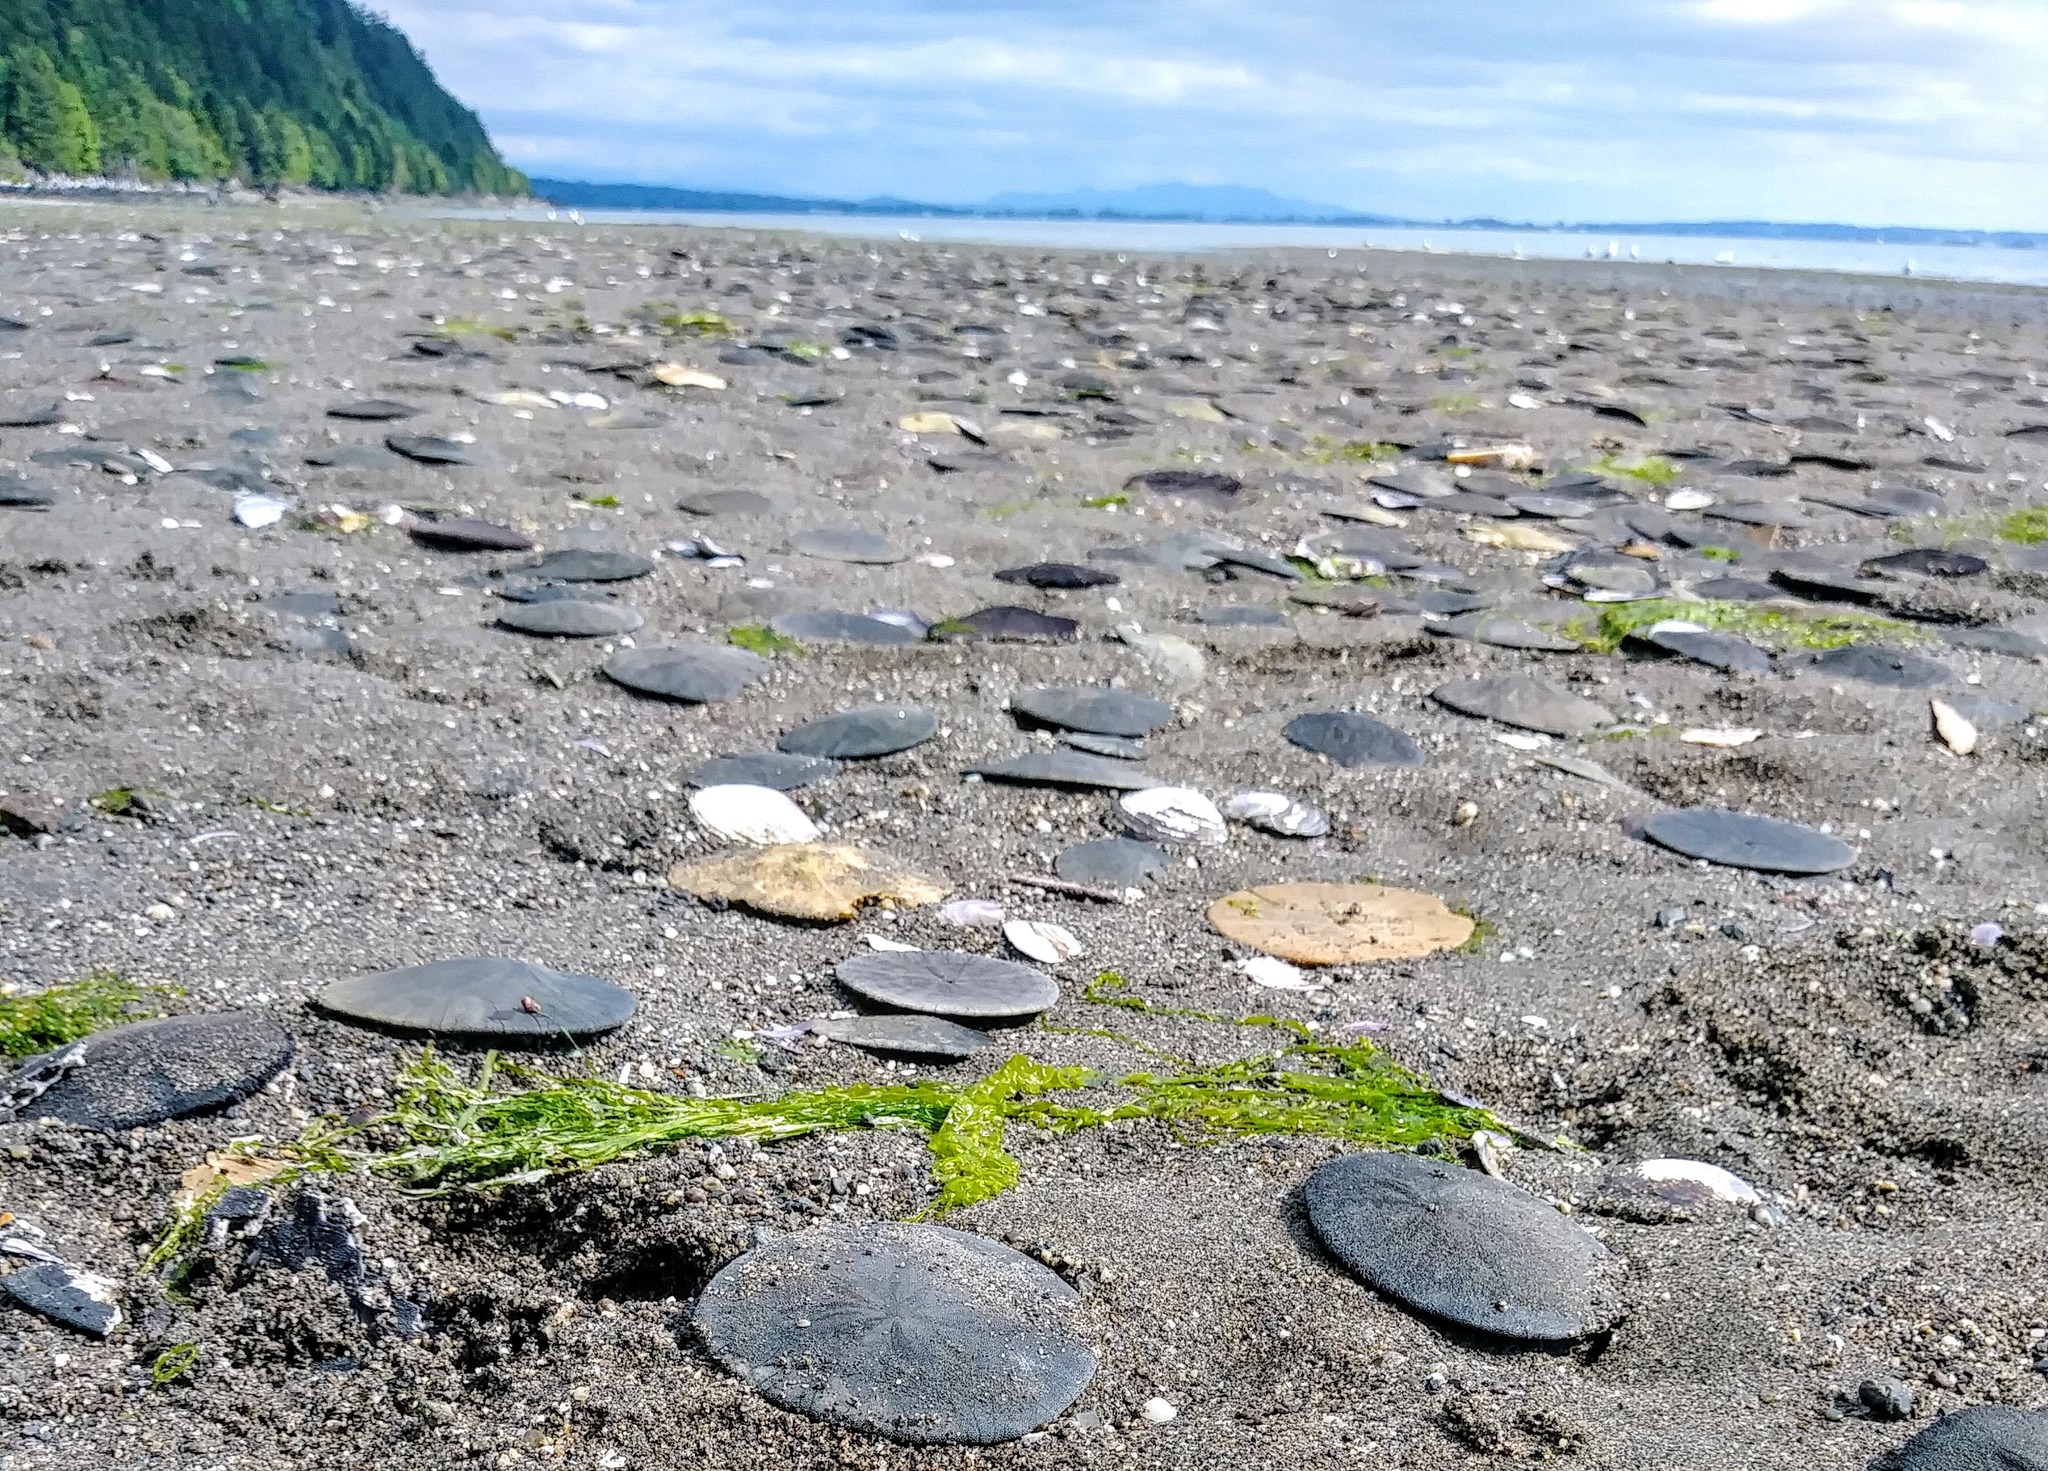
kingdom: Animalia
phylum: Echinodermata
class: Echinoidea
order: Echinolampadacea
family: Dendrasteridae
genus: Dendraster
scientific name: Dendraster excentricus
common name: Eccentric sand dollar sea urchin
